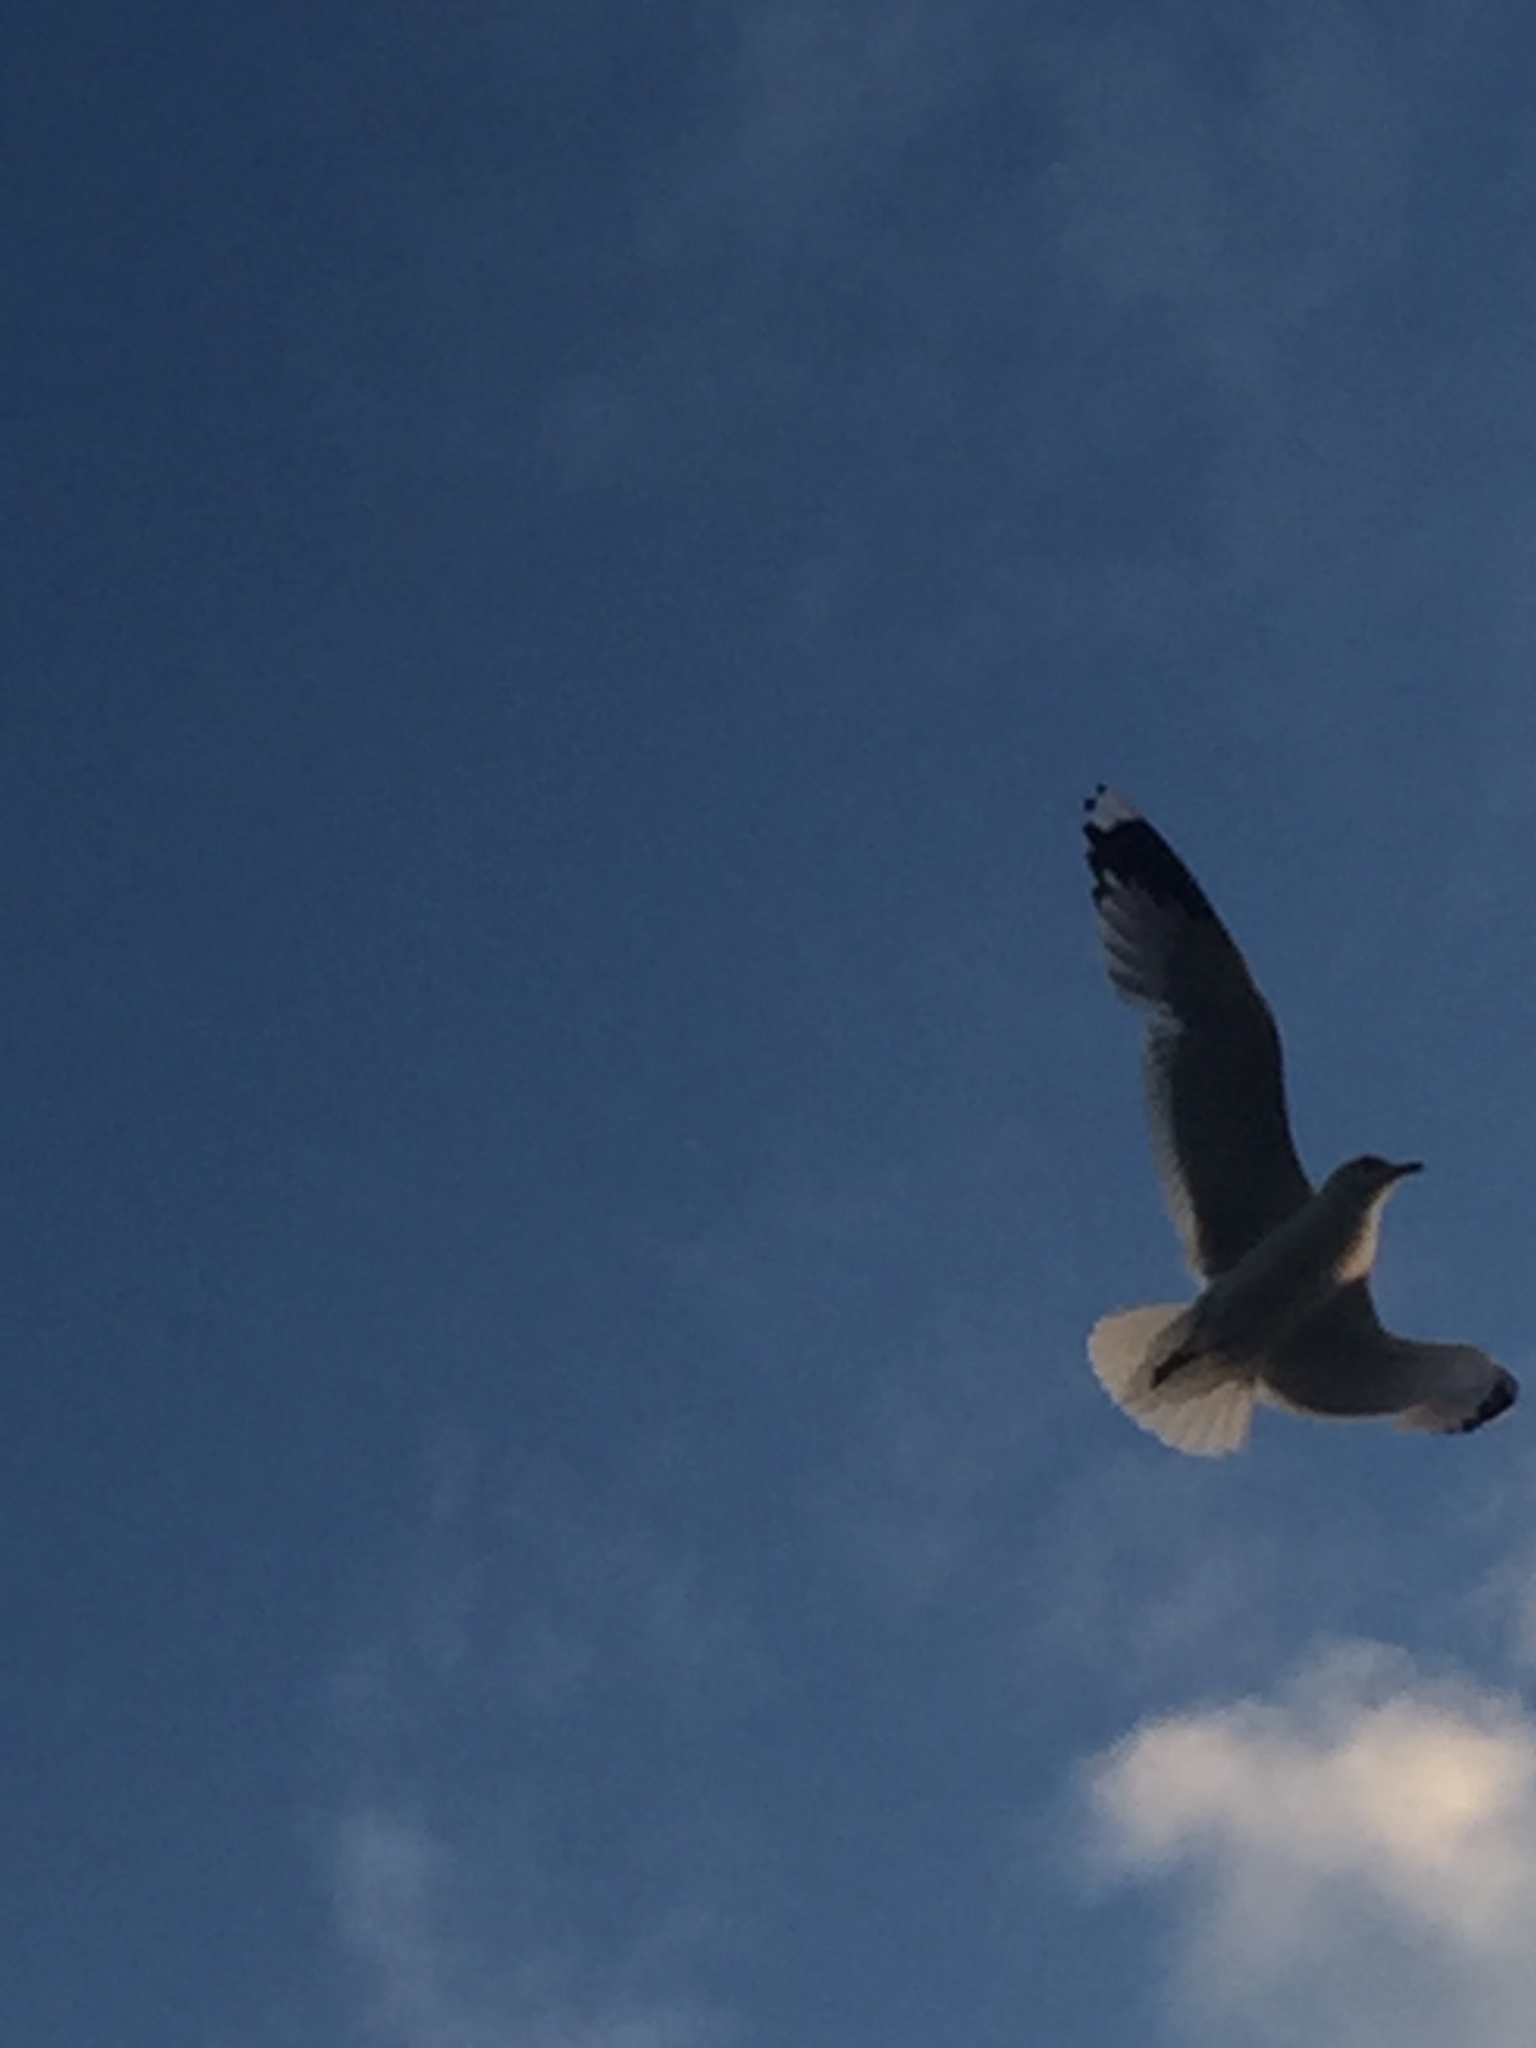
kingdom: Animalia
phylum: Chordata
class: Aves
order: Charadriiformes
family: Laridae
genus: Larus
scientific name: Larus canus
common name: Mew gull
